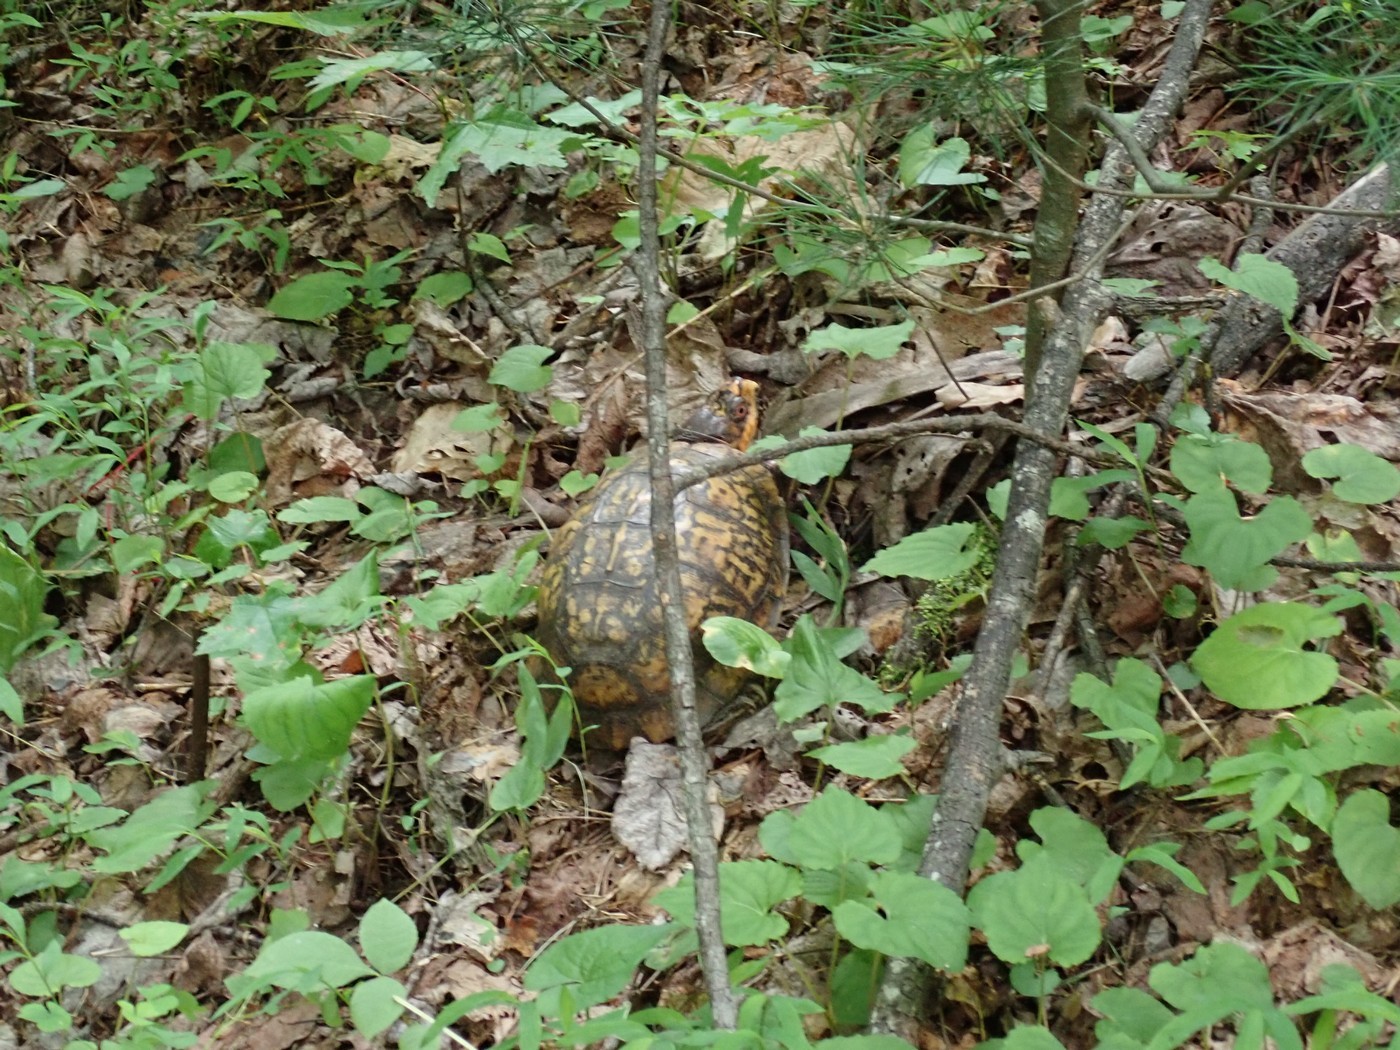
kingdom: Animalia
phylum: Chordata
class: Testudines
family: Emydidae
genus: Terrapene
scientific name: Terrapene carolina
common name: Common box turtle
